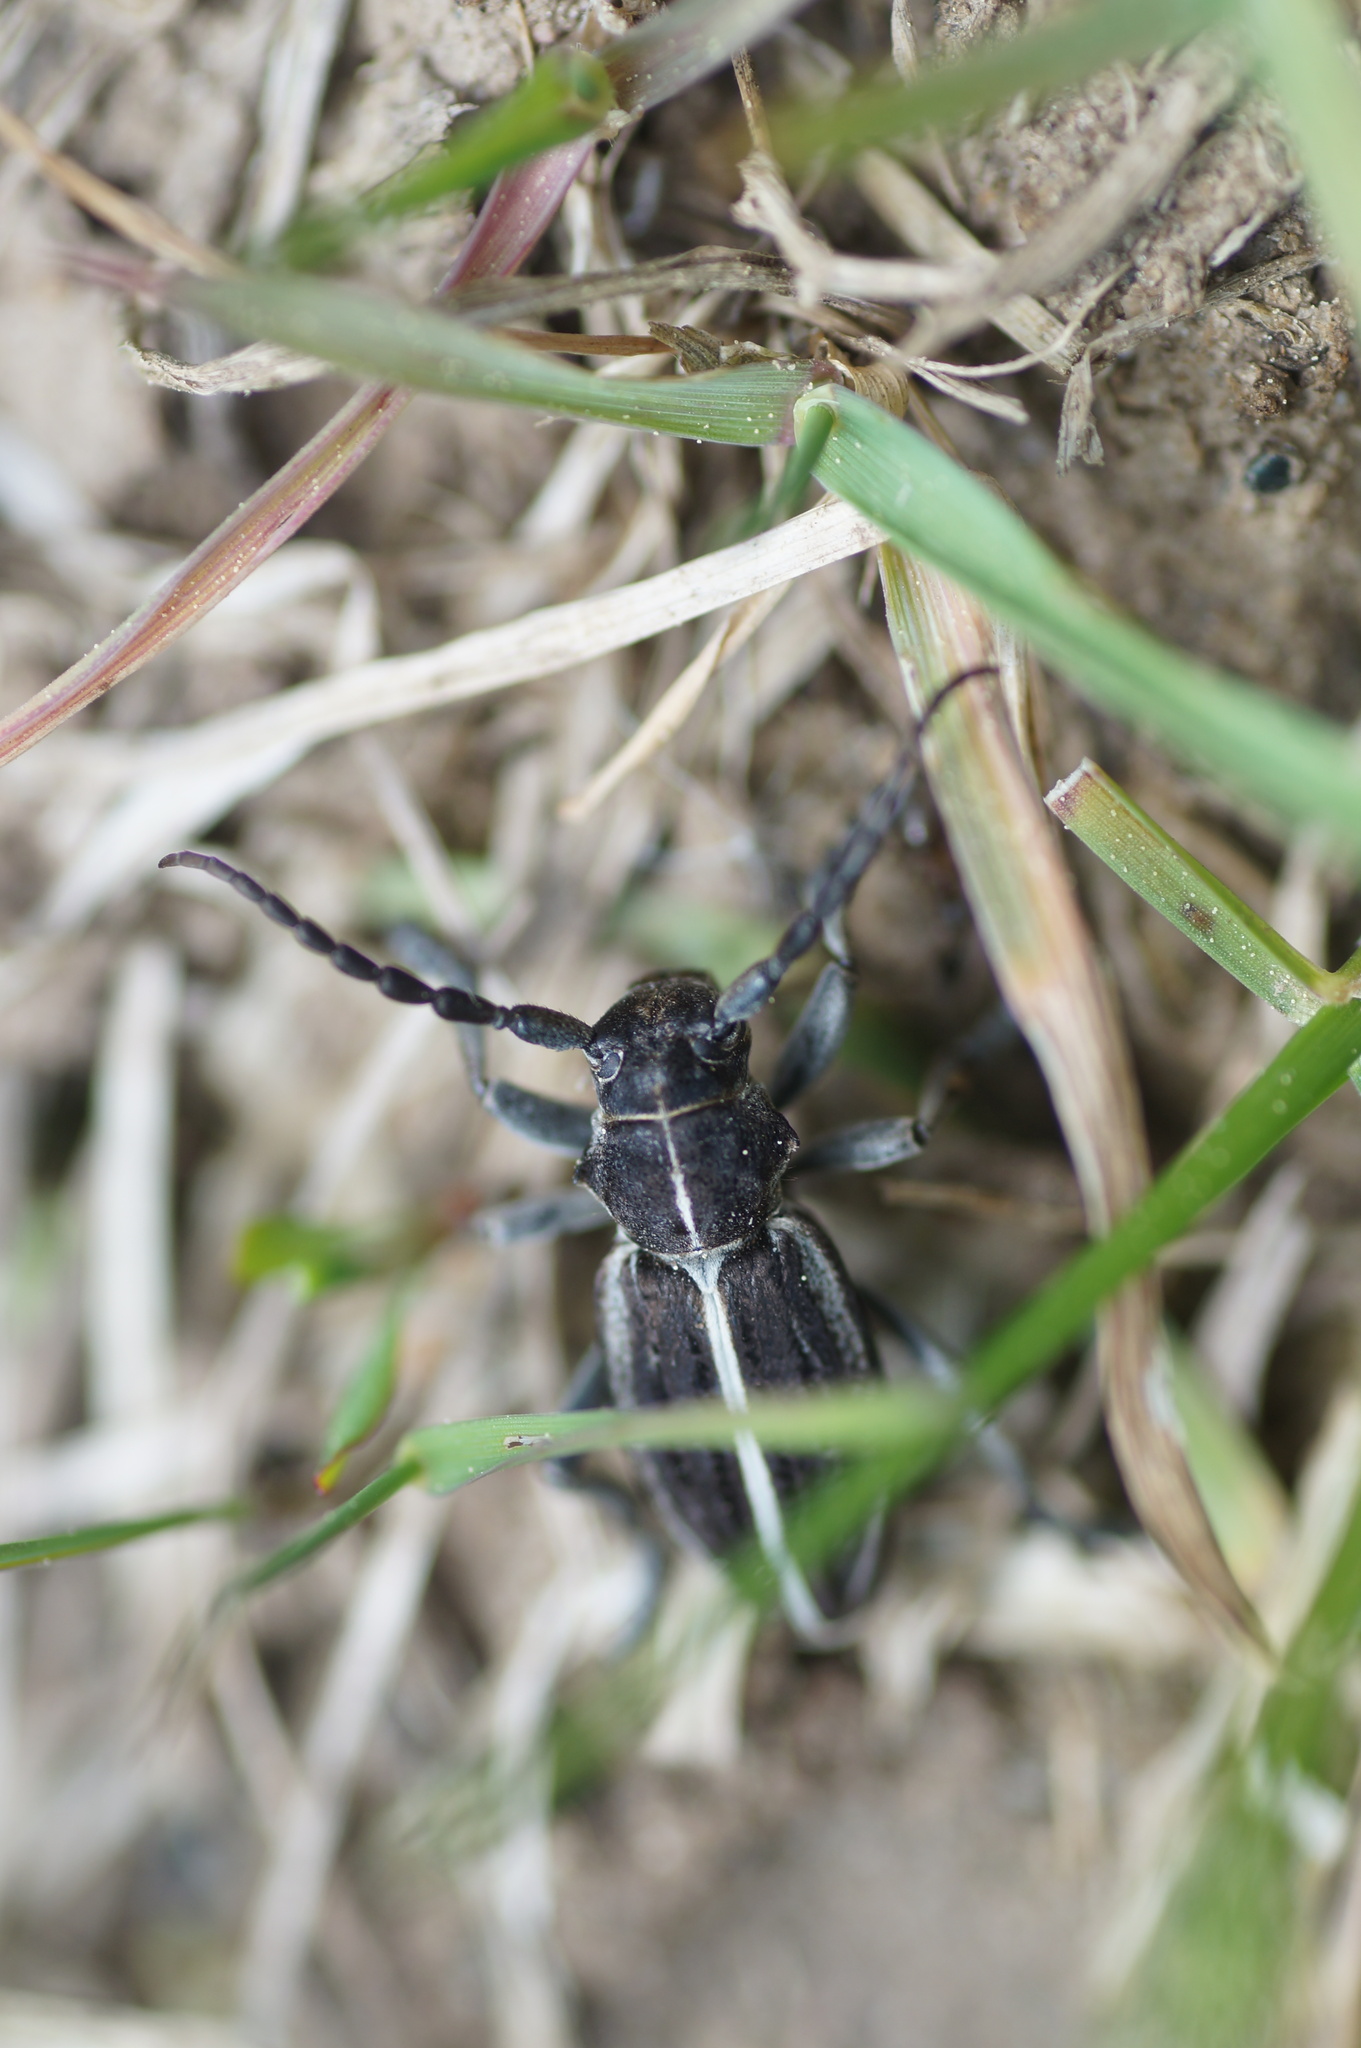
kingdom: Animalia
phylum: Arthropoda
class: Insecta
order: Coleoptera
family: Cerambycidae
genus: Dorcadion
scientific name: Dorcadion holosericeum
